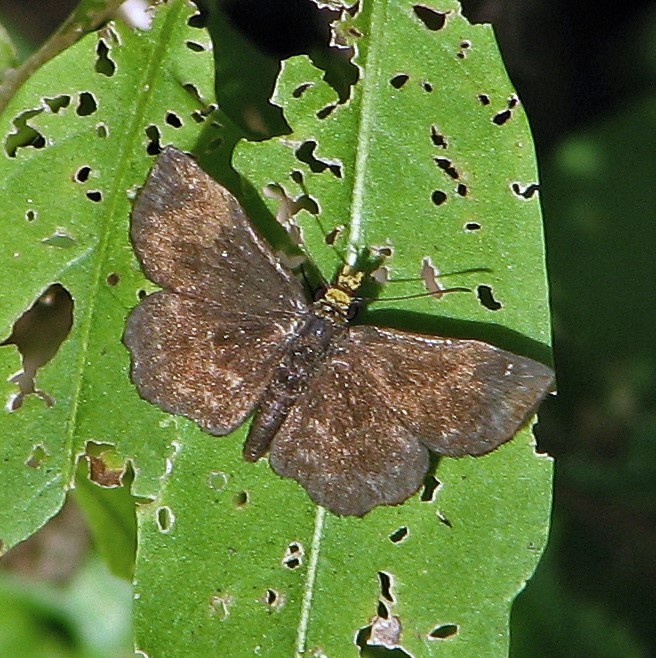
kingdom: Animalia
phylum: Arthropoda
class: Insecta
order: Lepidoptera
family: Hesperiidae
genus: Staphylus
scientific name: Staphylus musculus
